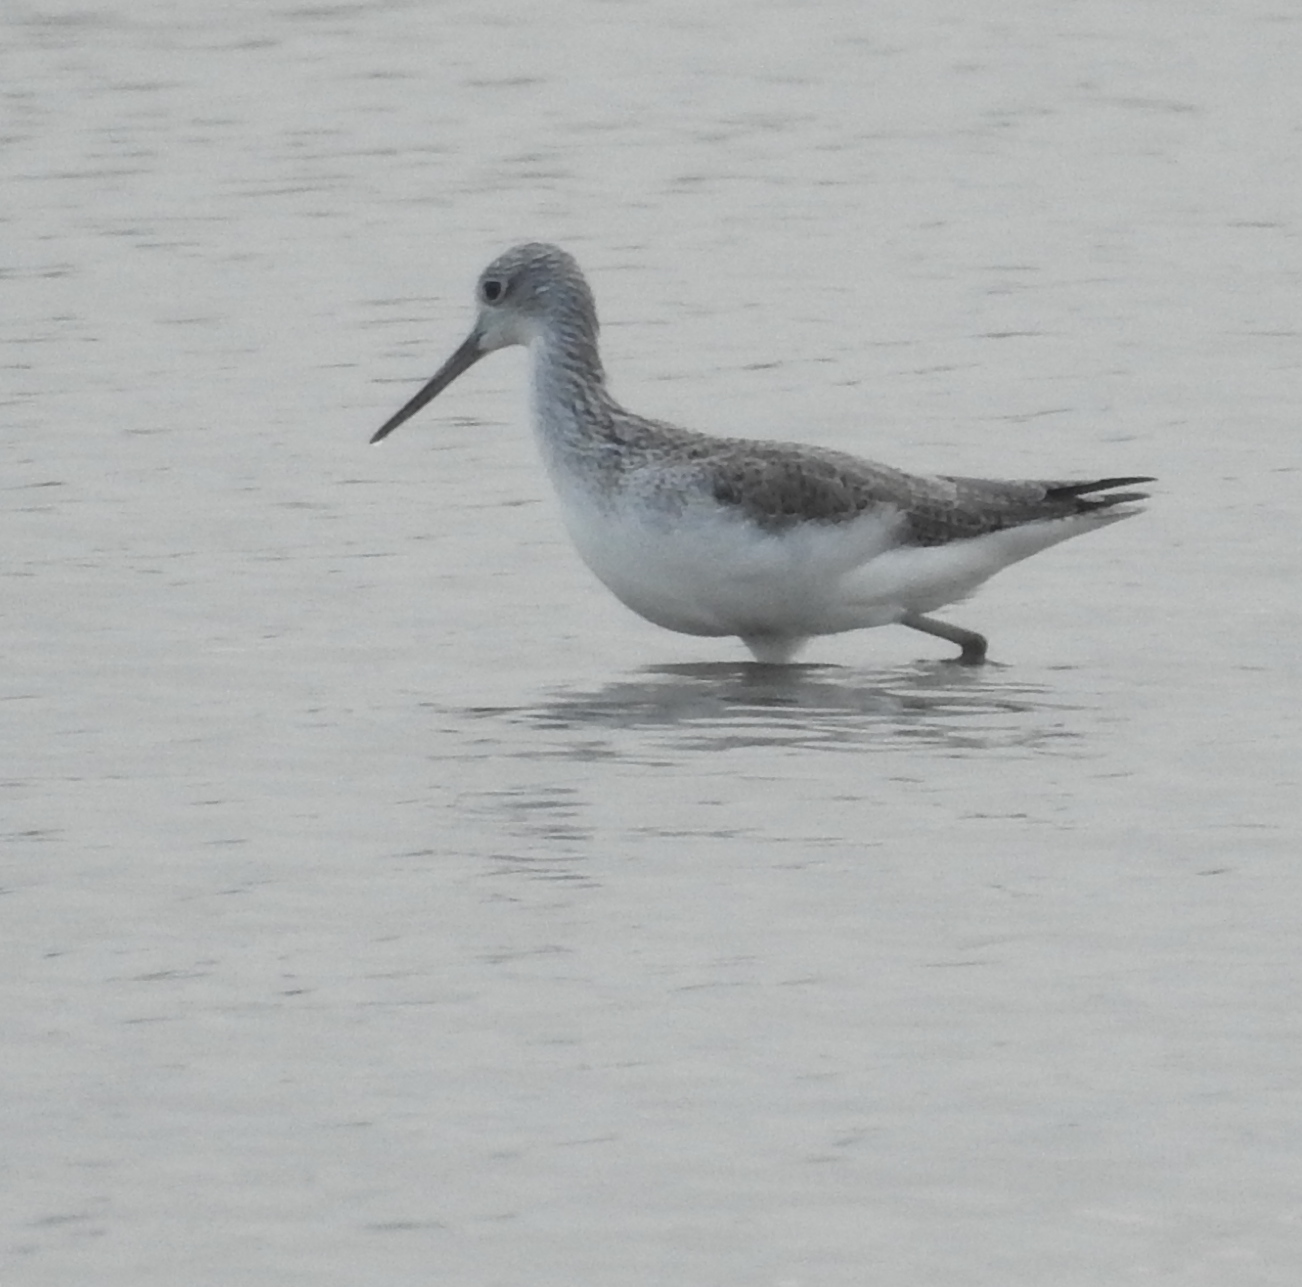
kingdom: Animalia
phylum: Chordata
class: Aves
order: Charadriiformes
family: Scolopacidae
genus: Tringa
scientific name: Tringa nebularia
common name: Common greenshank
